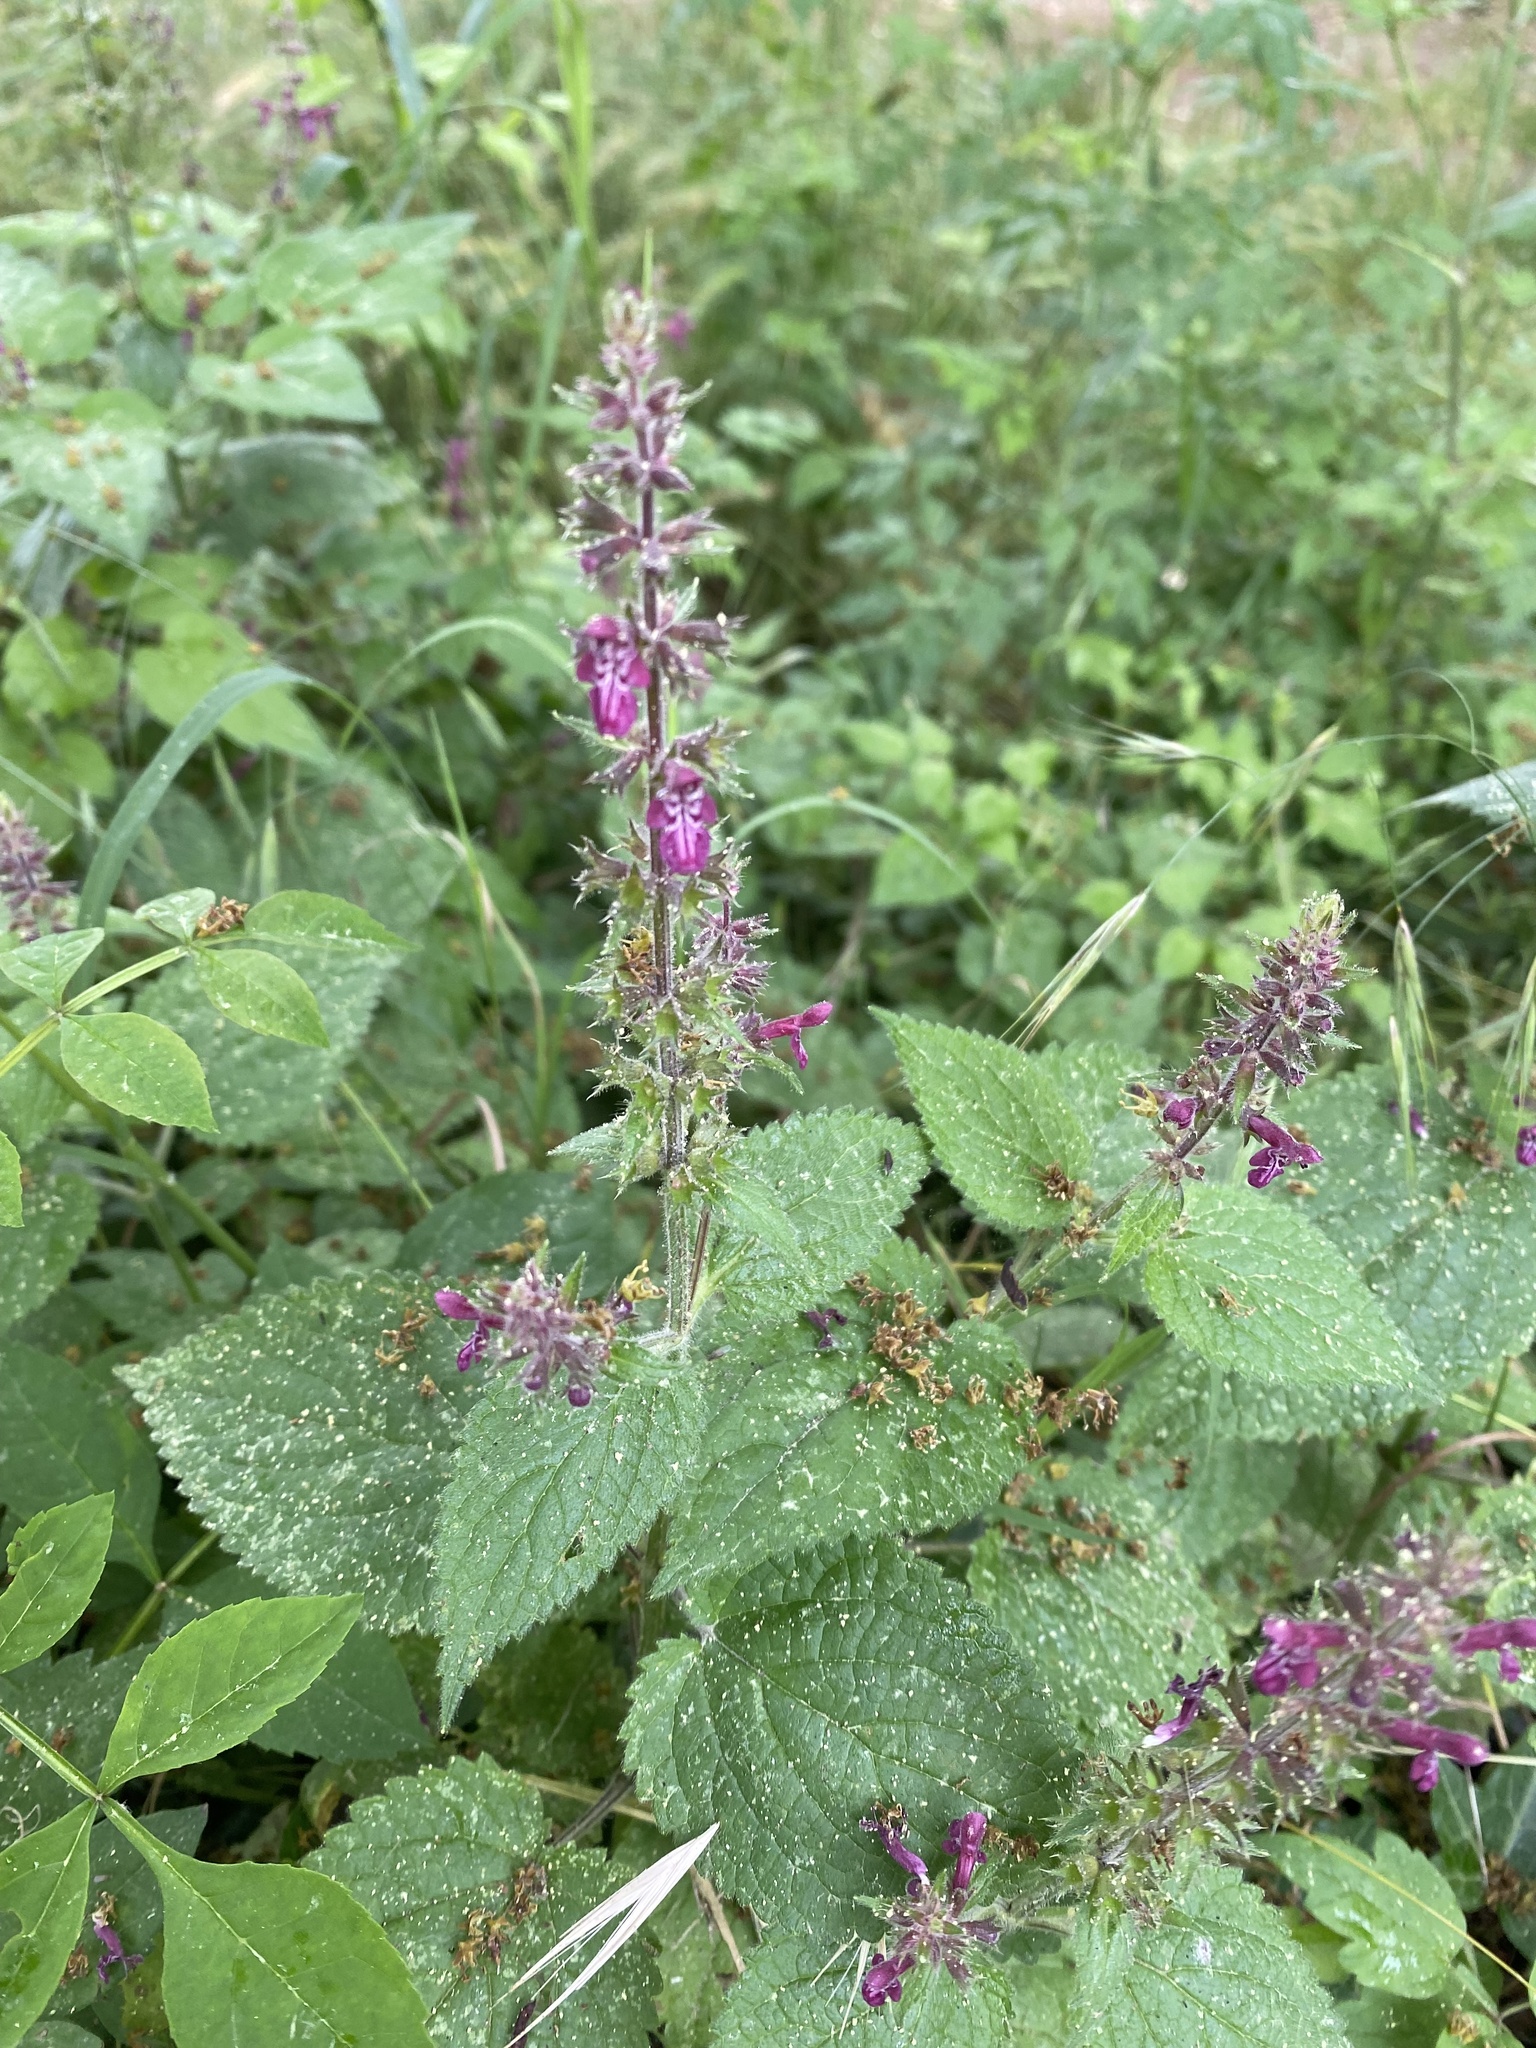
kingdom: Plantae
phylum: Tracheophyta
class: Magnoliopsida
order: Lamiales
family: Lamiaceae
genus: Stachys
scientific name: Stachys sylvatica
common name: Hedge woundwort
